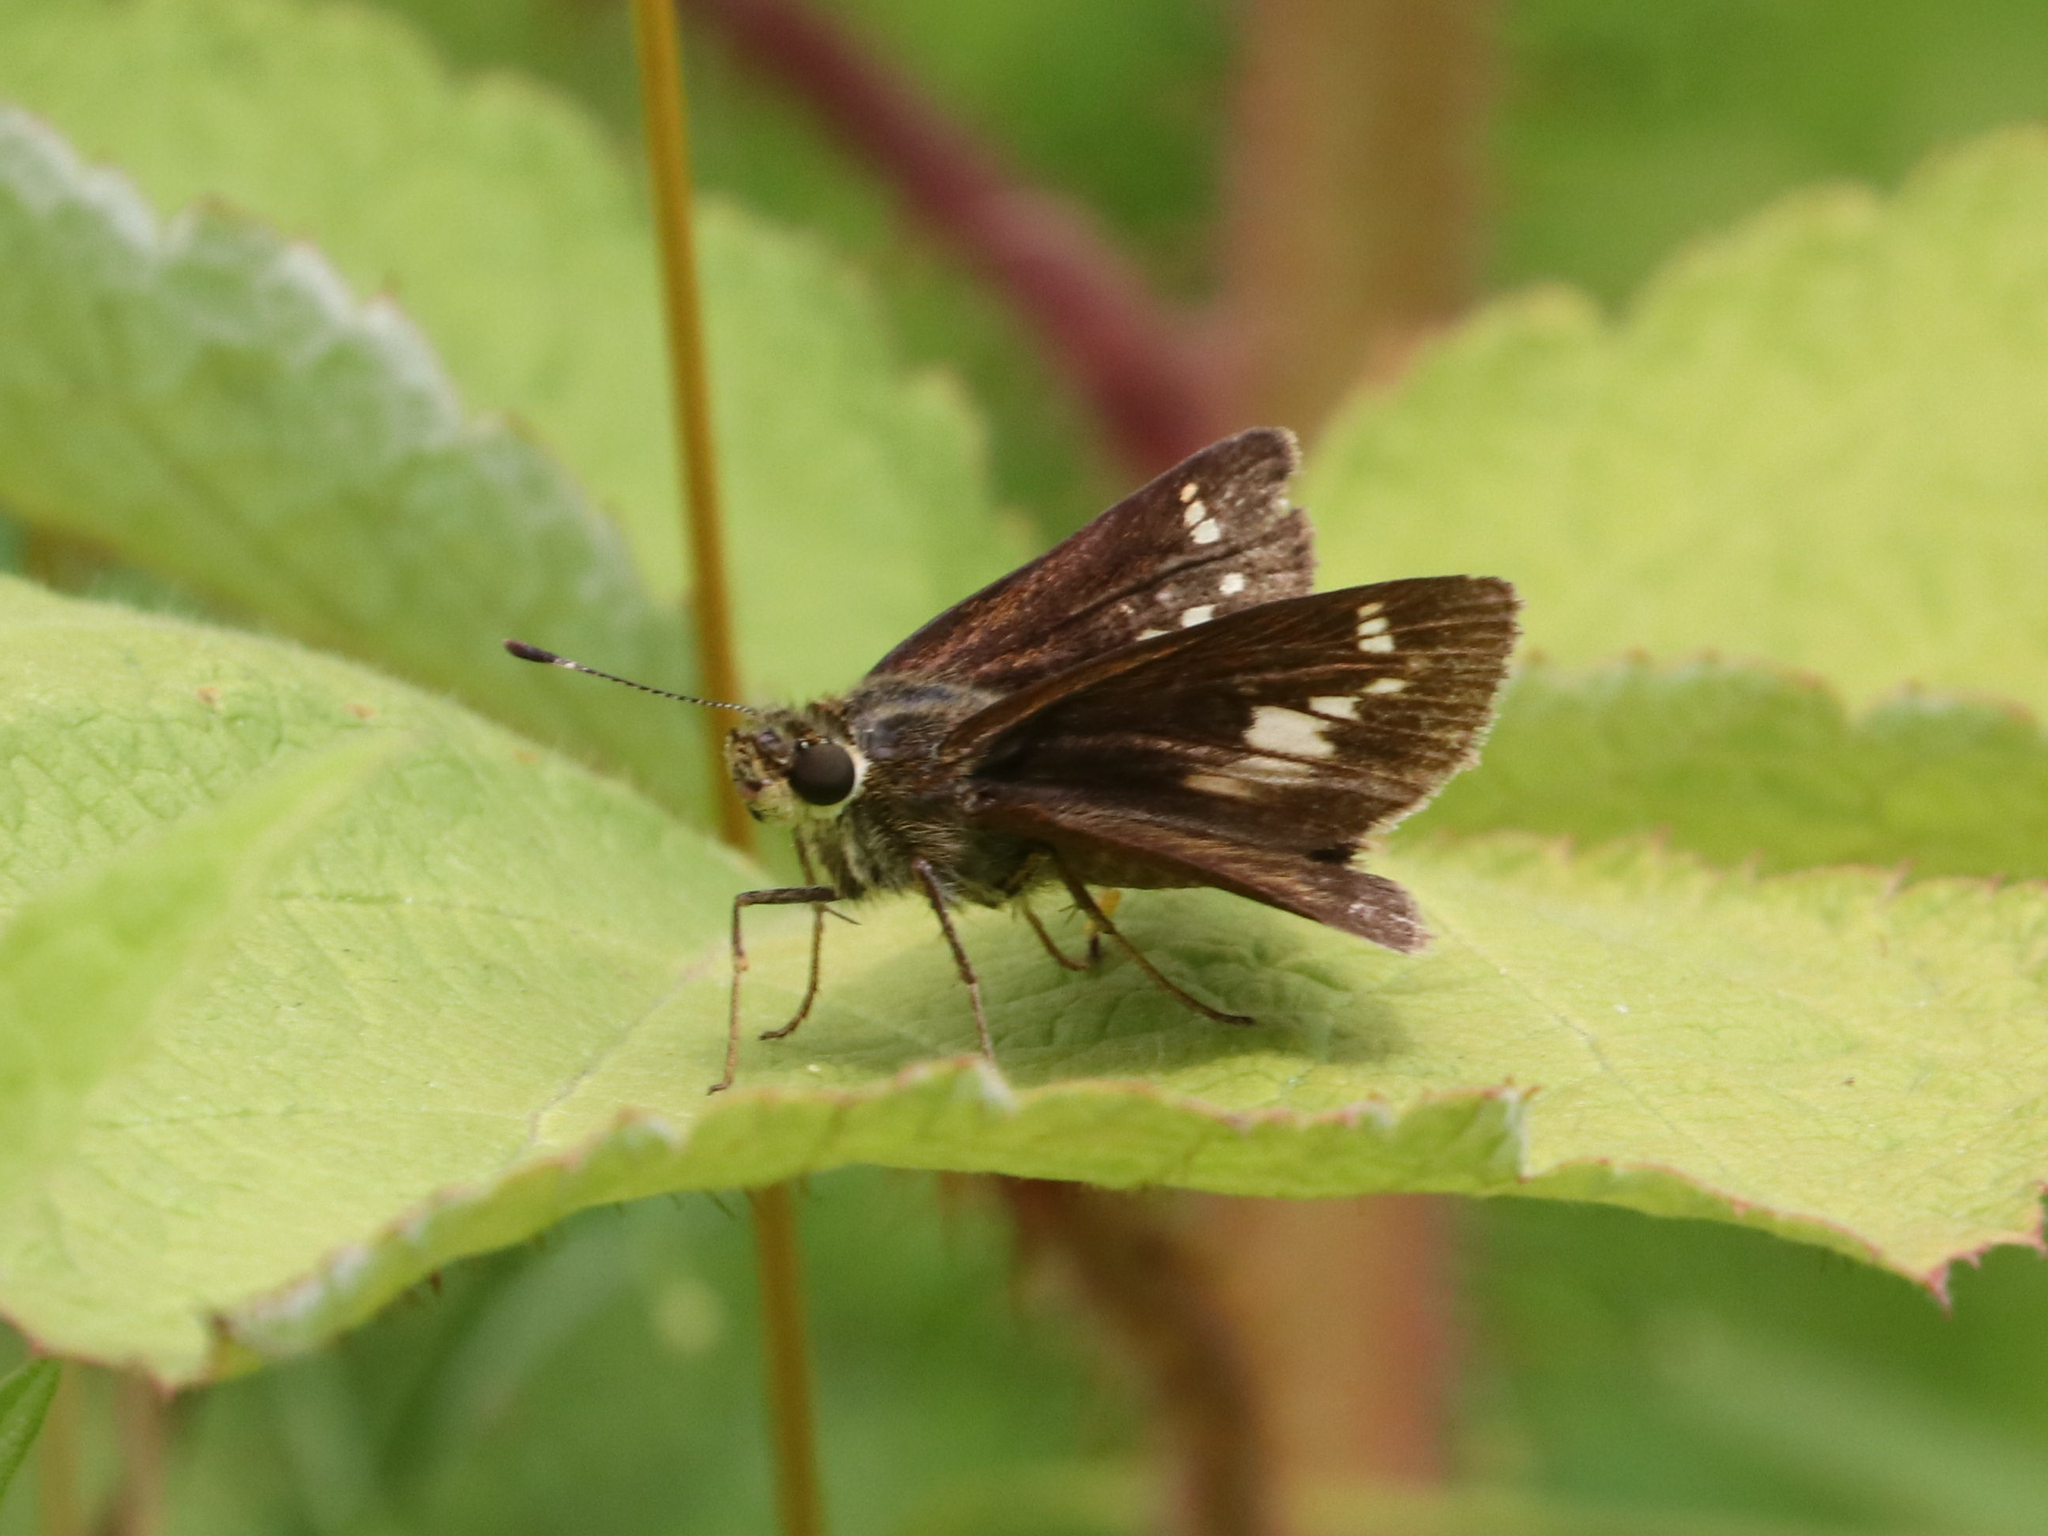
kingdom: Animalia
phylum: Arthropoda
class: Insecta
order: Lepidoptera
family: Hesperiidae
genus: Vernia
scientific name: Vernia verna
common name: Little glassywing
